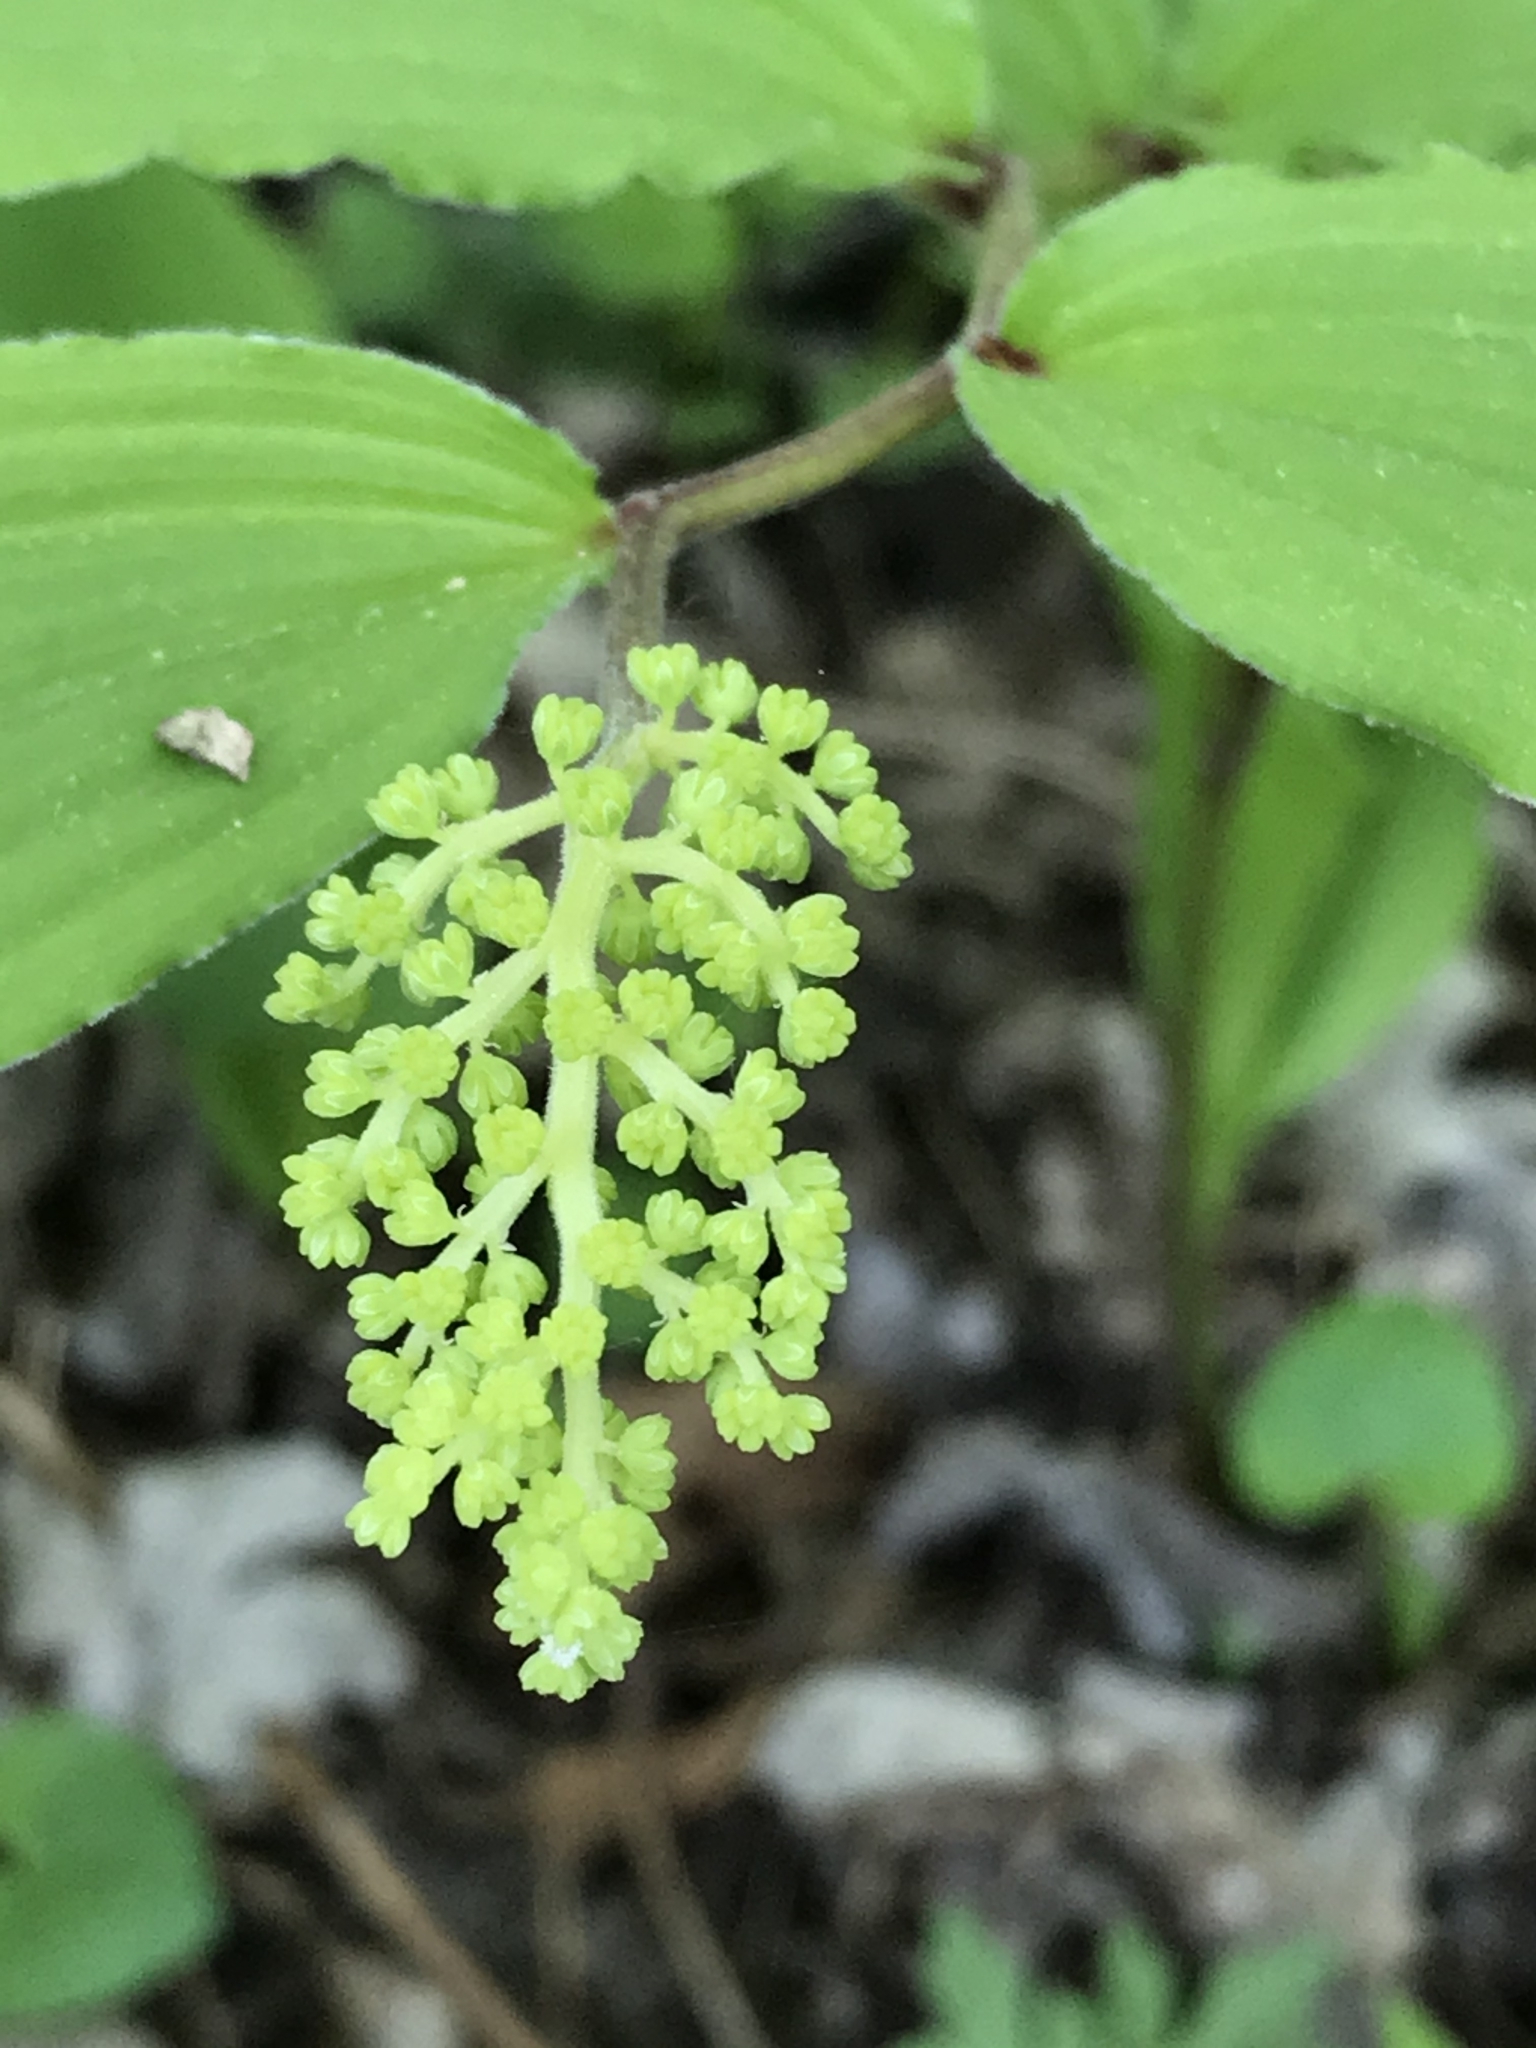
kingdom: Plantae
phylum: Tracheophyta
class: Liliopsida
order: Asparagales
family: Asparagaceae
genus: Maianthemum
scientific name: Maianthemum racemosum
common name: False spikenard
